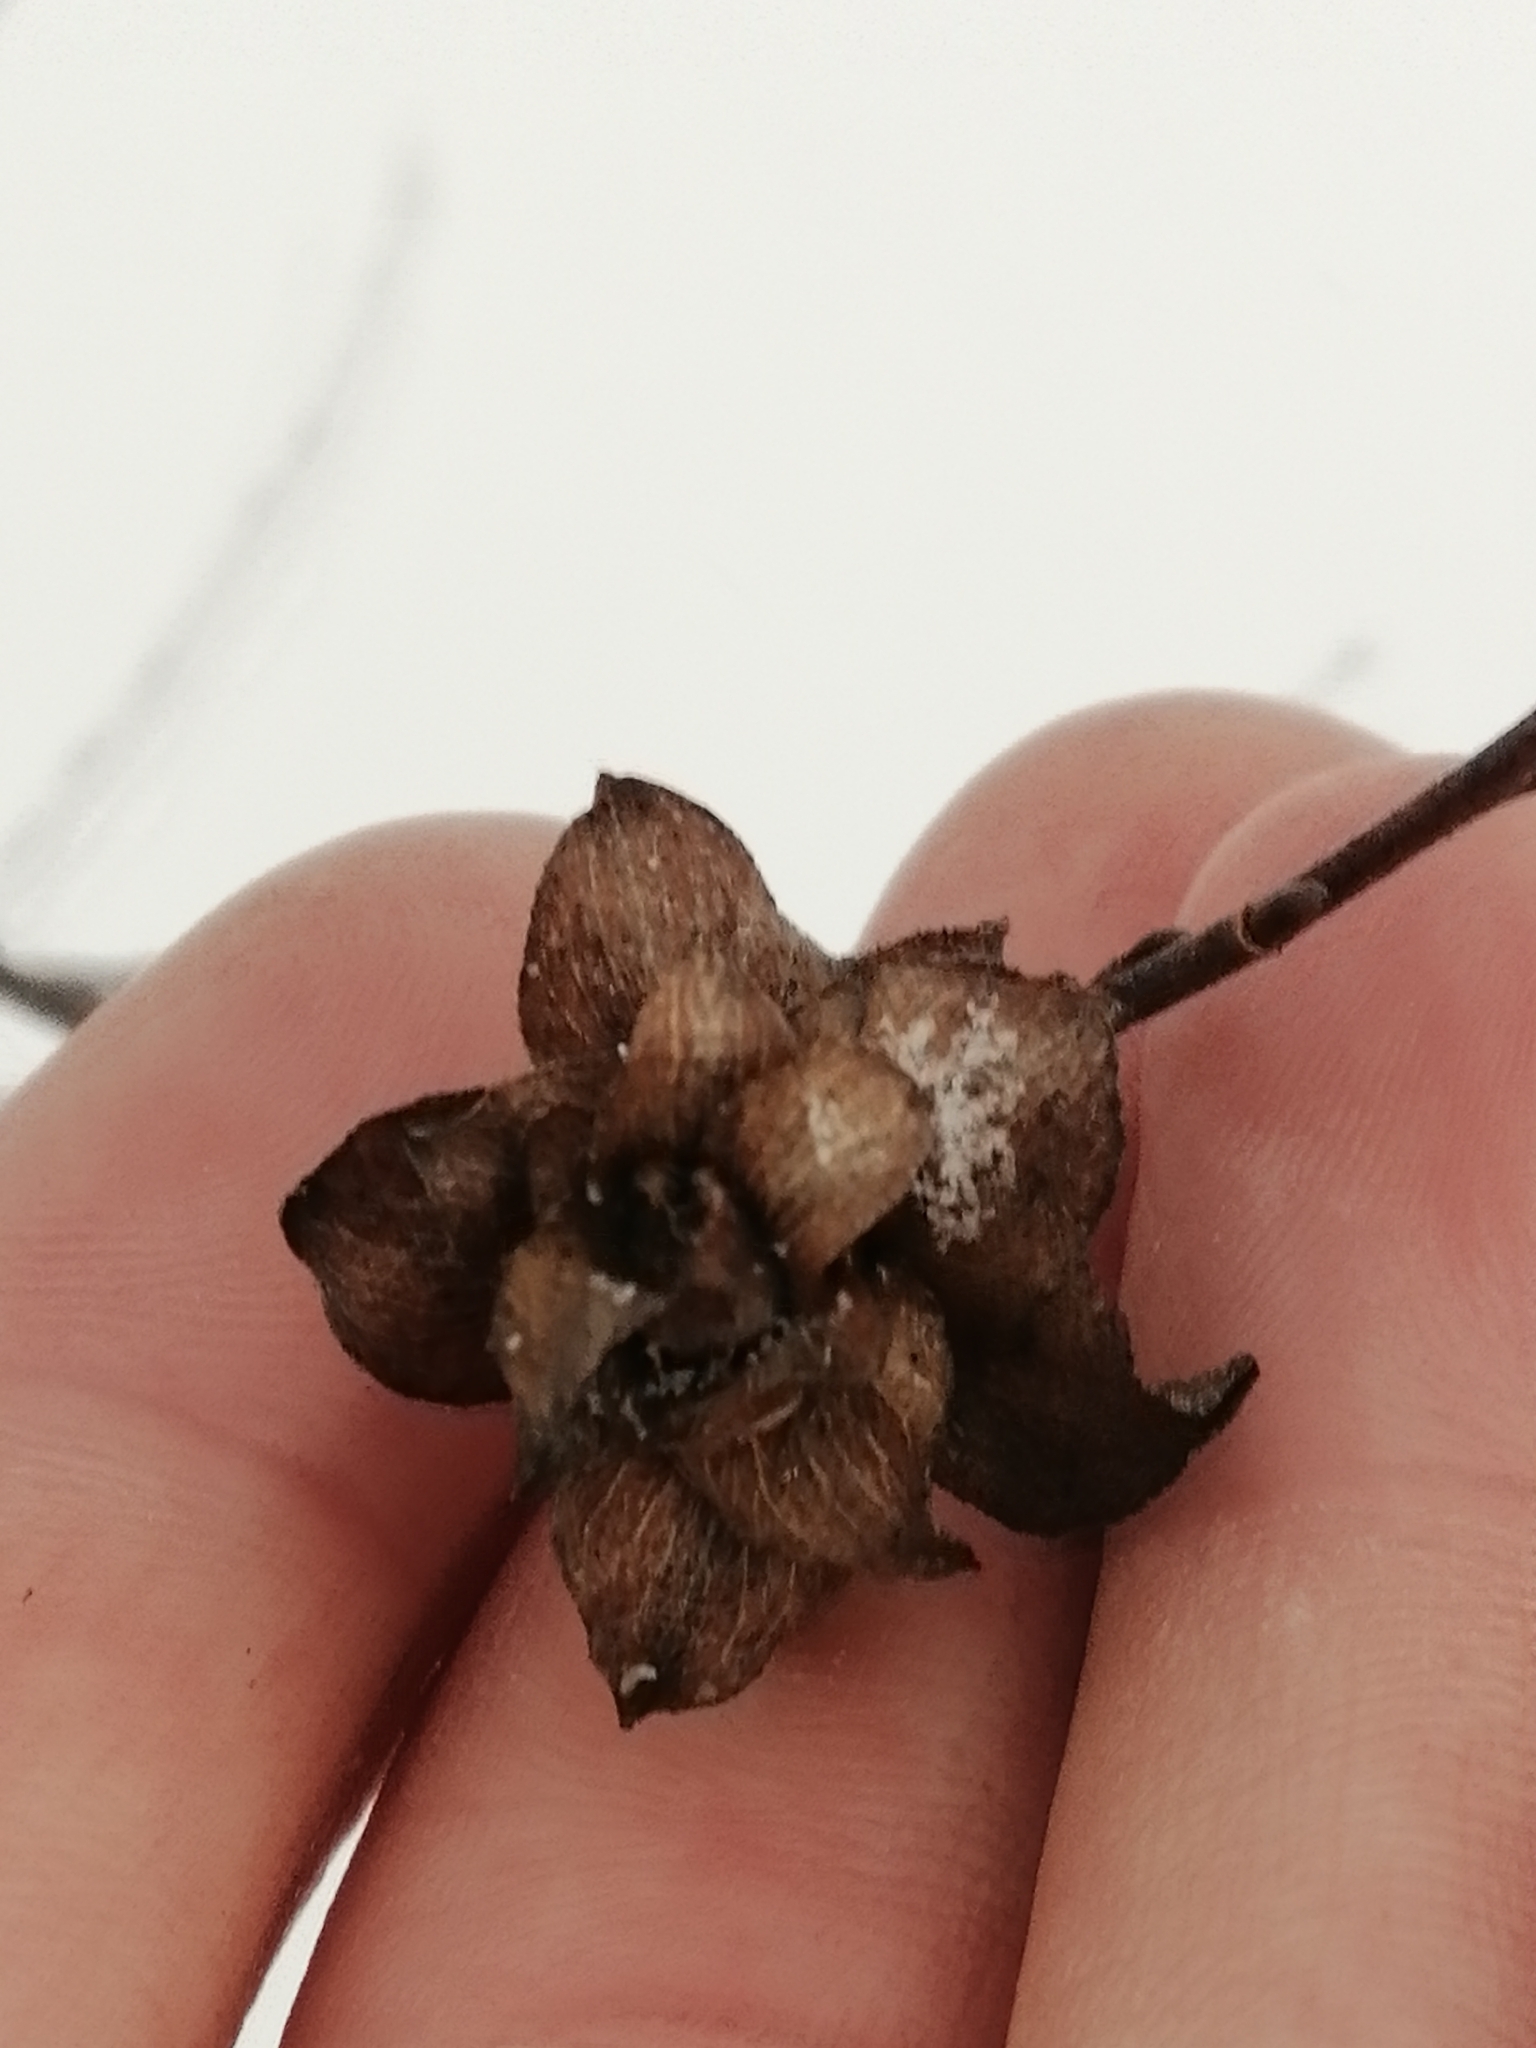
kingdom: Animalia
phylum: Arthropoda
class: Insecta
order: Diptera
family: Cecidomyiidae
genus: Rabdophaga
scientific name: Rabdophaga rosaria
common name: Willow rose gall midge
